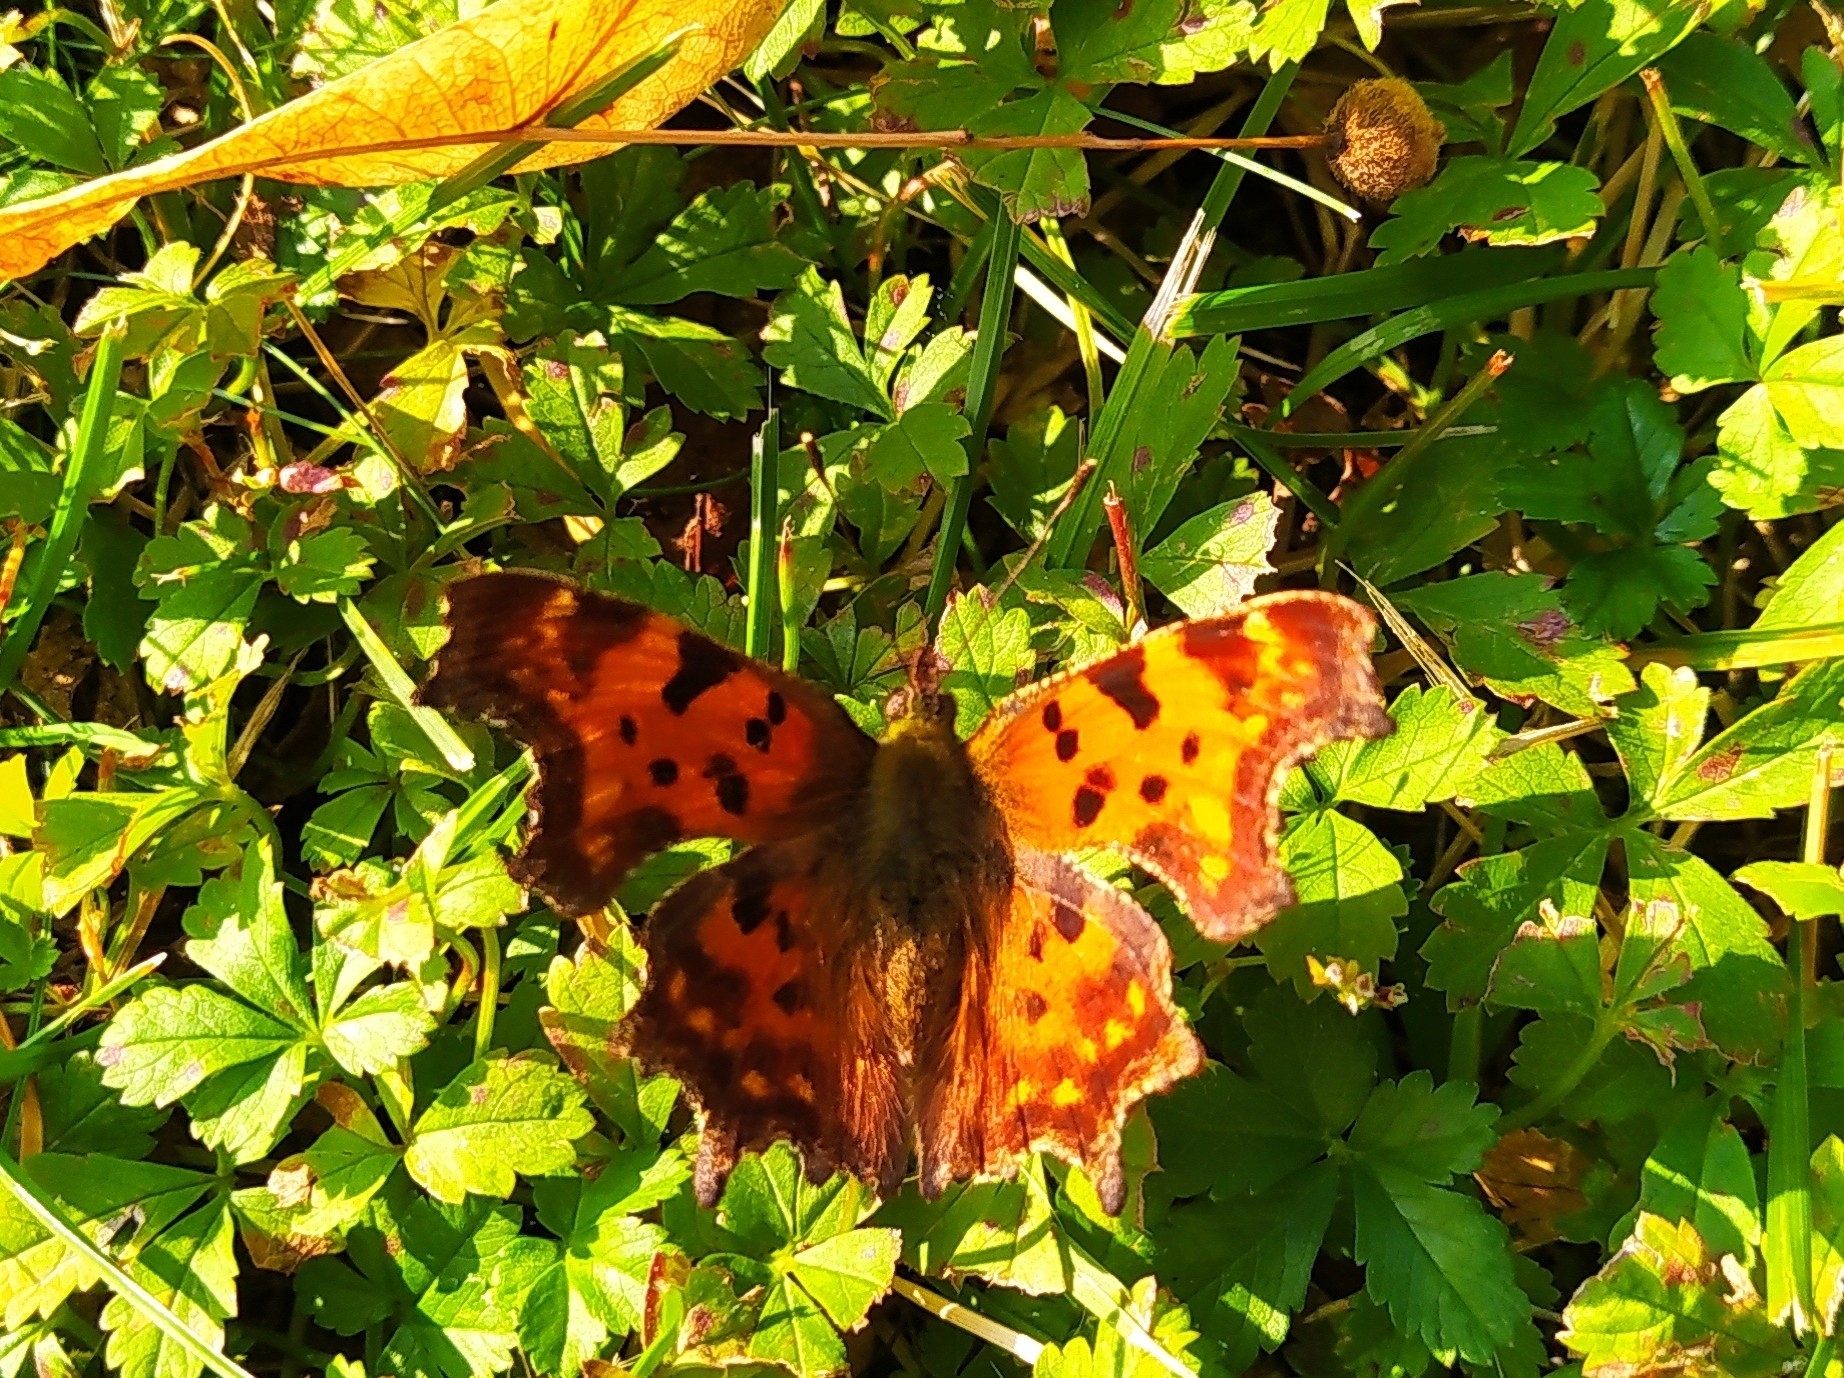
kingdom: Animalia
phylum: Arthropoda
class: Insecta
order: Lepidoptera
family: Nymphalidae
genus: Polygonia
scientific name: Polygonia c-album
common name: Comma
